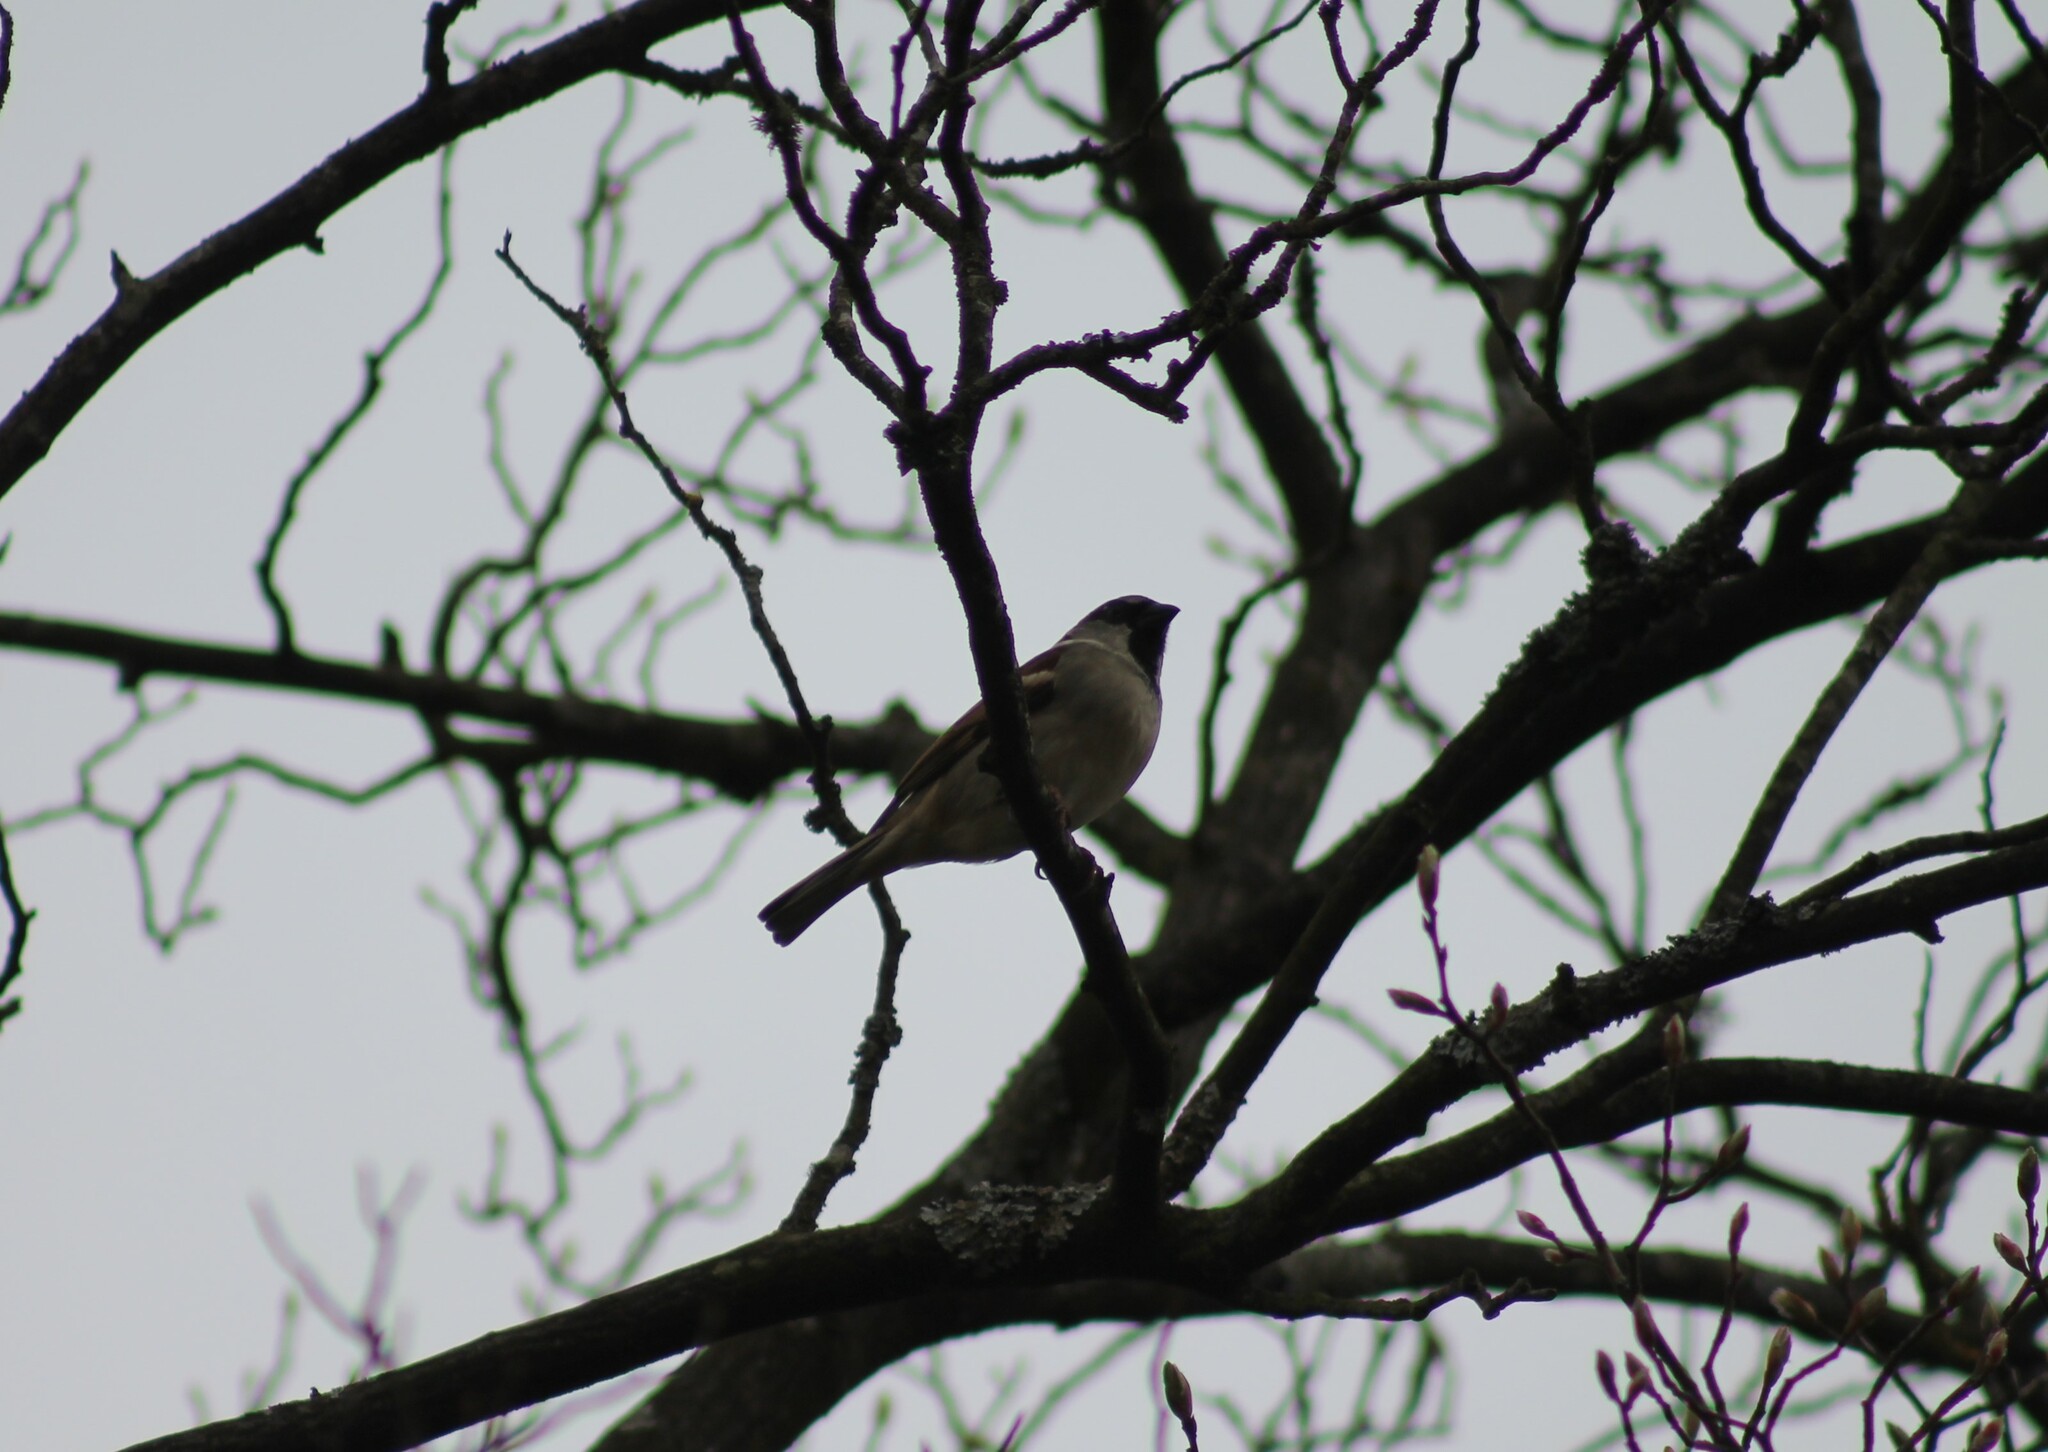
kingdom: Animalia
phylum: Chordata
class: Aves
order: Passeriformes
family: Passeridae
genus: Passer
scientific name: Passer domesticus
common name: House sparrow
